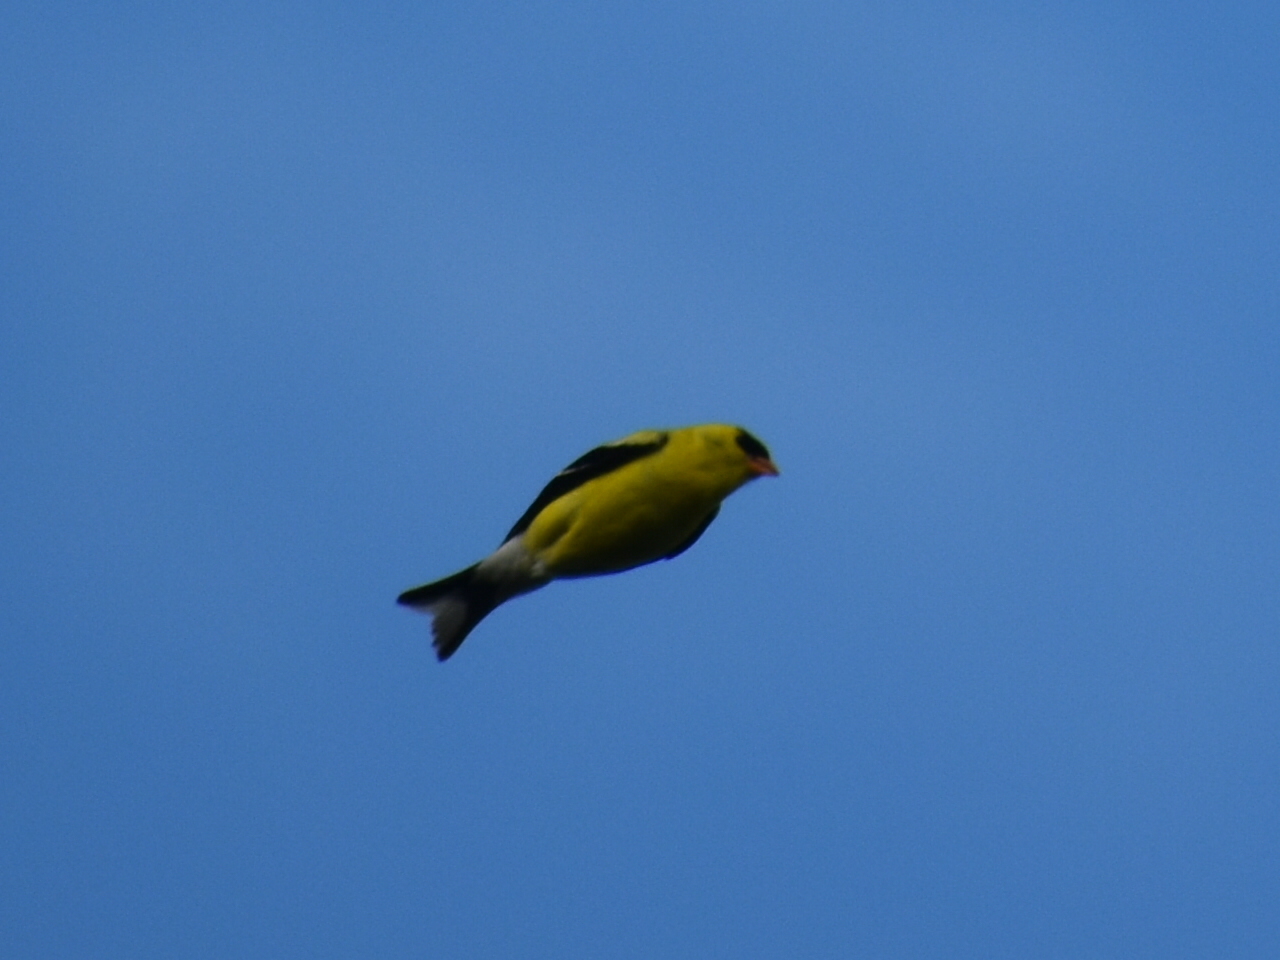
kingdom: Animalia
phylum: Chordata
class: Aves
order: Passeriformes
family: Fringillidae
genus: Spinus
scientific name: Spinus tristis
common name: American goldfinch
